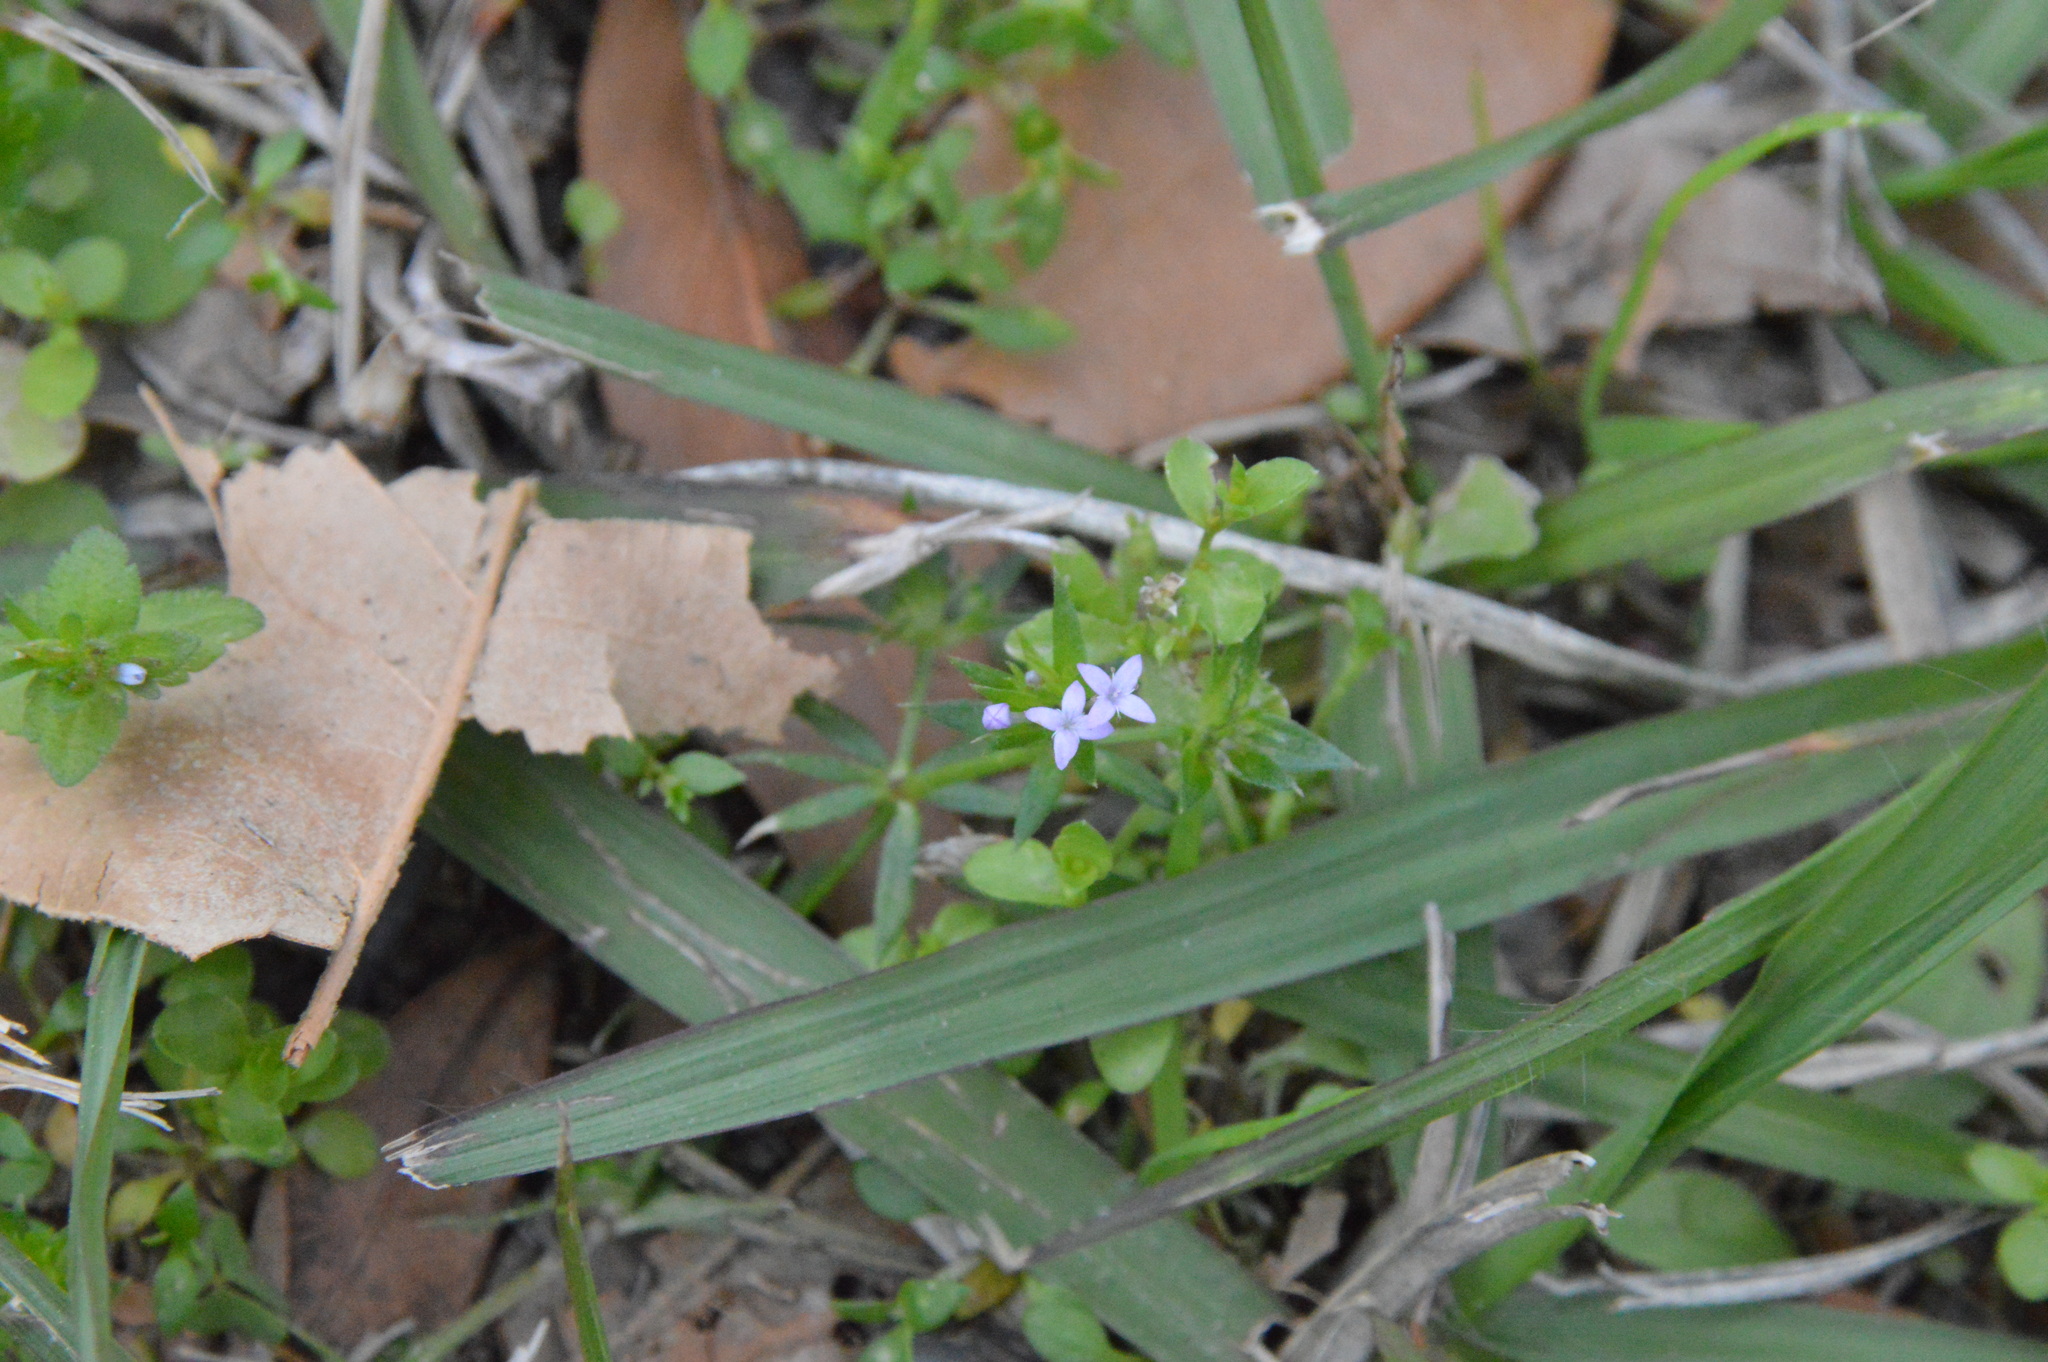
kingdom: Plantae
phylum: Tracheophyta
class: Magnoliopsida
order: Gentianales
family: Rubiaceae
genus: Sherardia
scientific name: Sherardia arvensis
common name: Field madder
